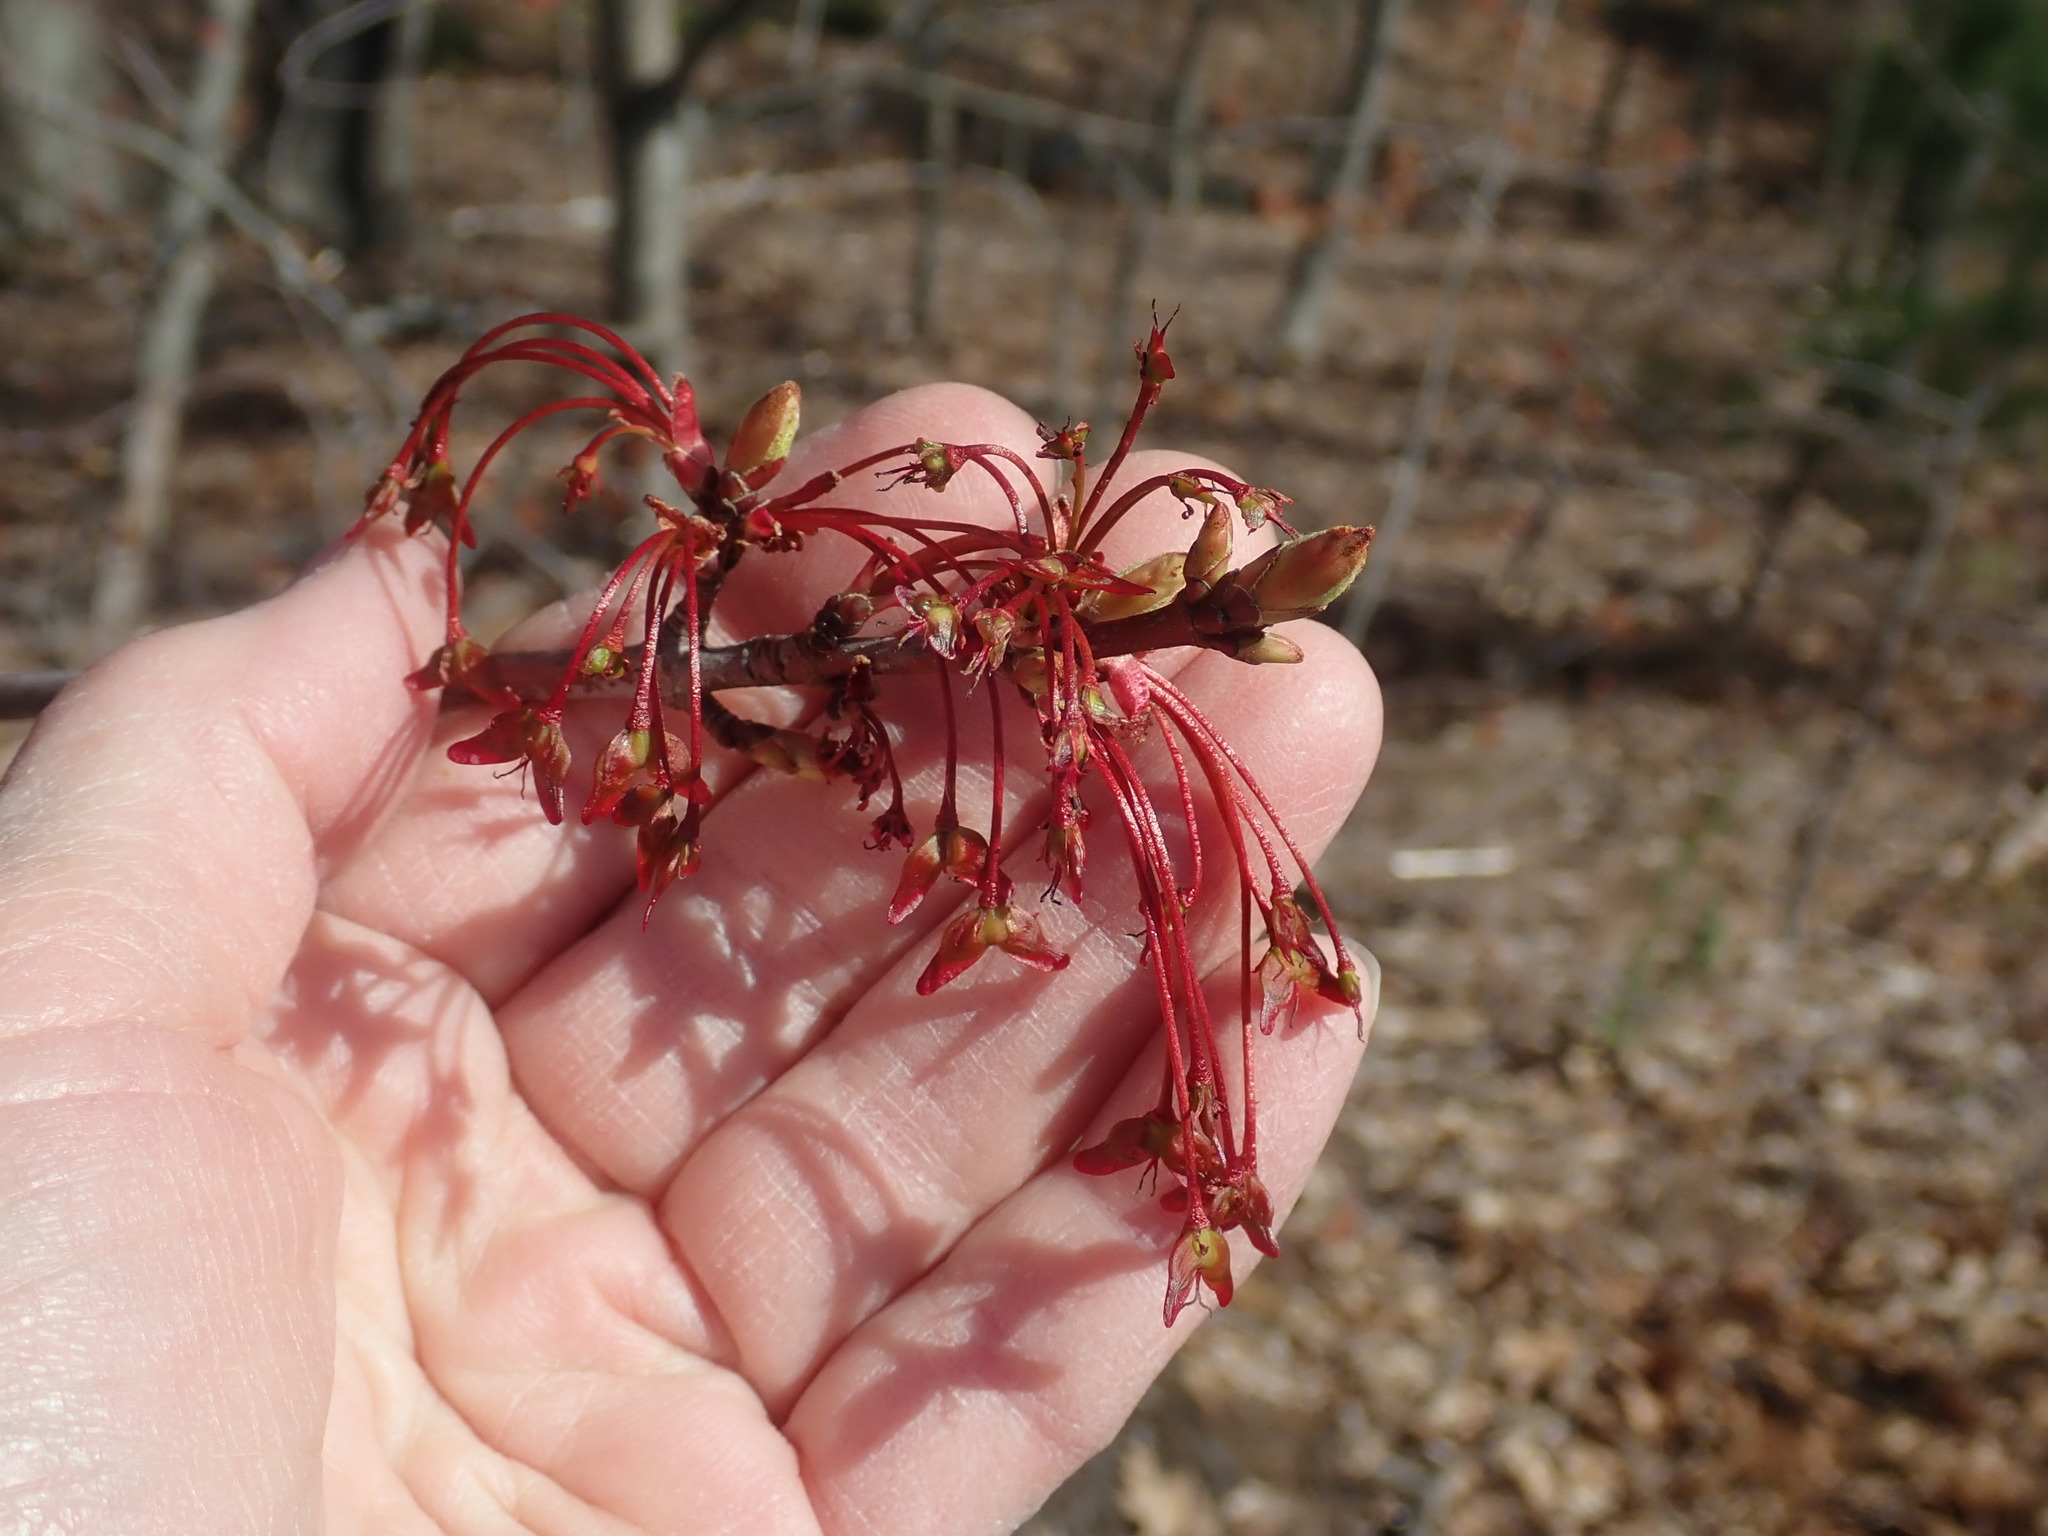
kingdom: Plantae
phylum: Tracheophyta
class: Magnoliopsida
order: Sapindales
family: Sapindaceae
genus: Acer
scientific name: Acer rubrum
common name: Red maple
